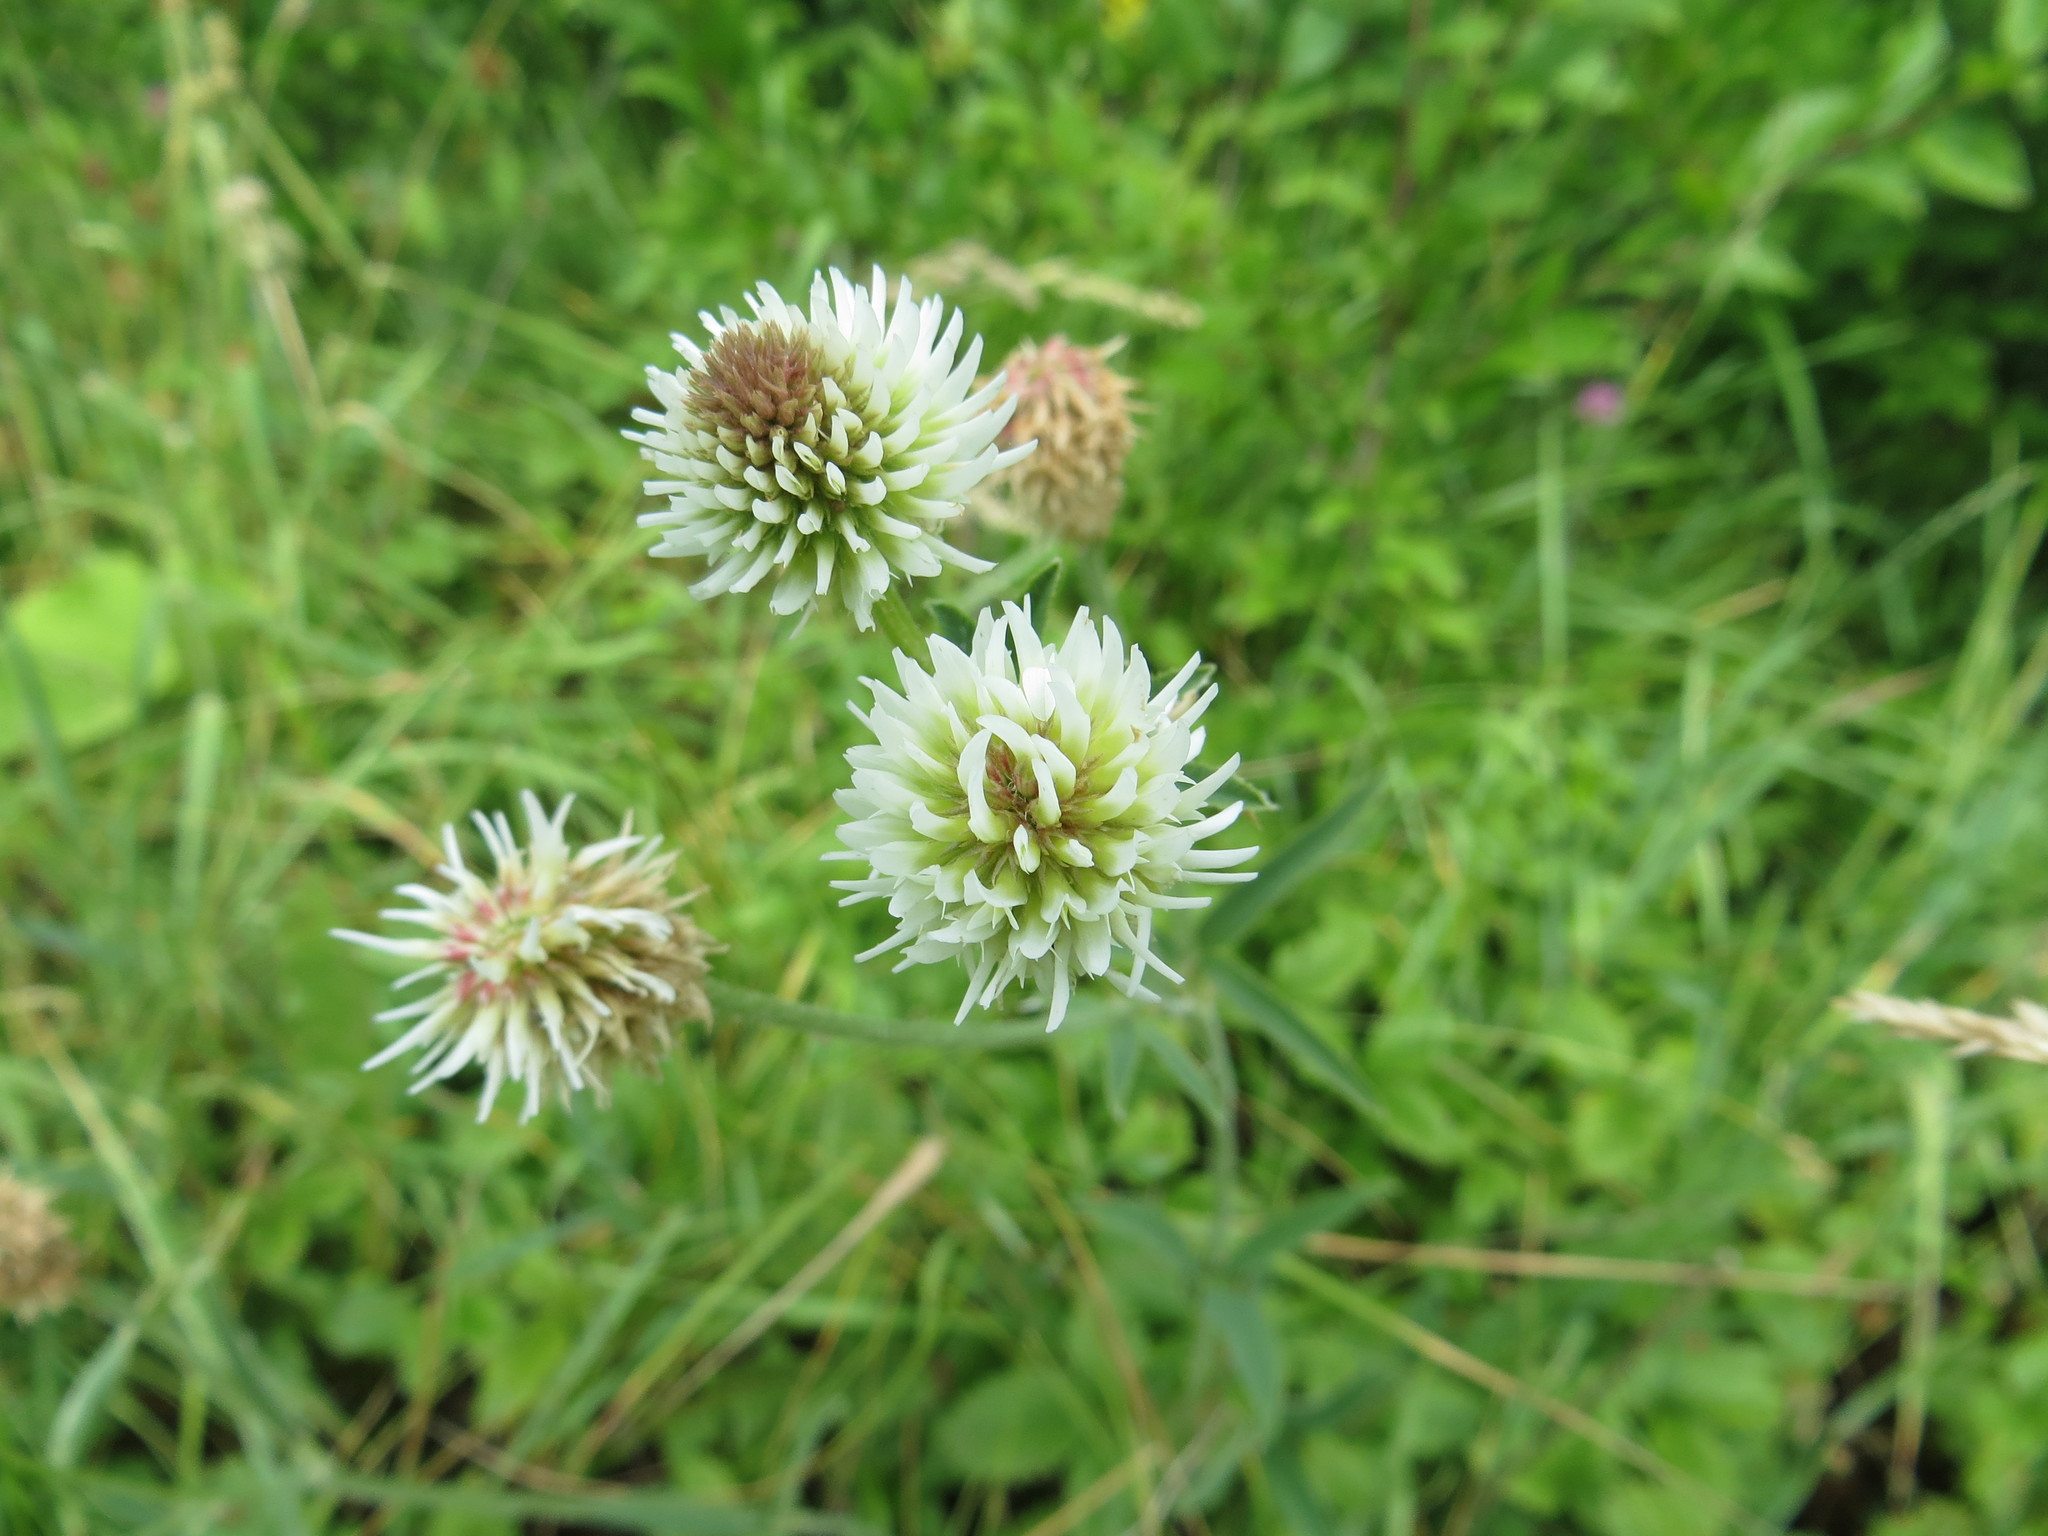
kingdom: Plantae
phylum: Tracheophyta
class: Magnoliopsida
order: Fabales
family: Fabaceae
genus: Trifolium
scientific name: Trifolium montanum
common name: Mountain clover
